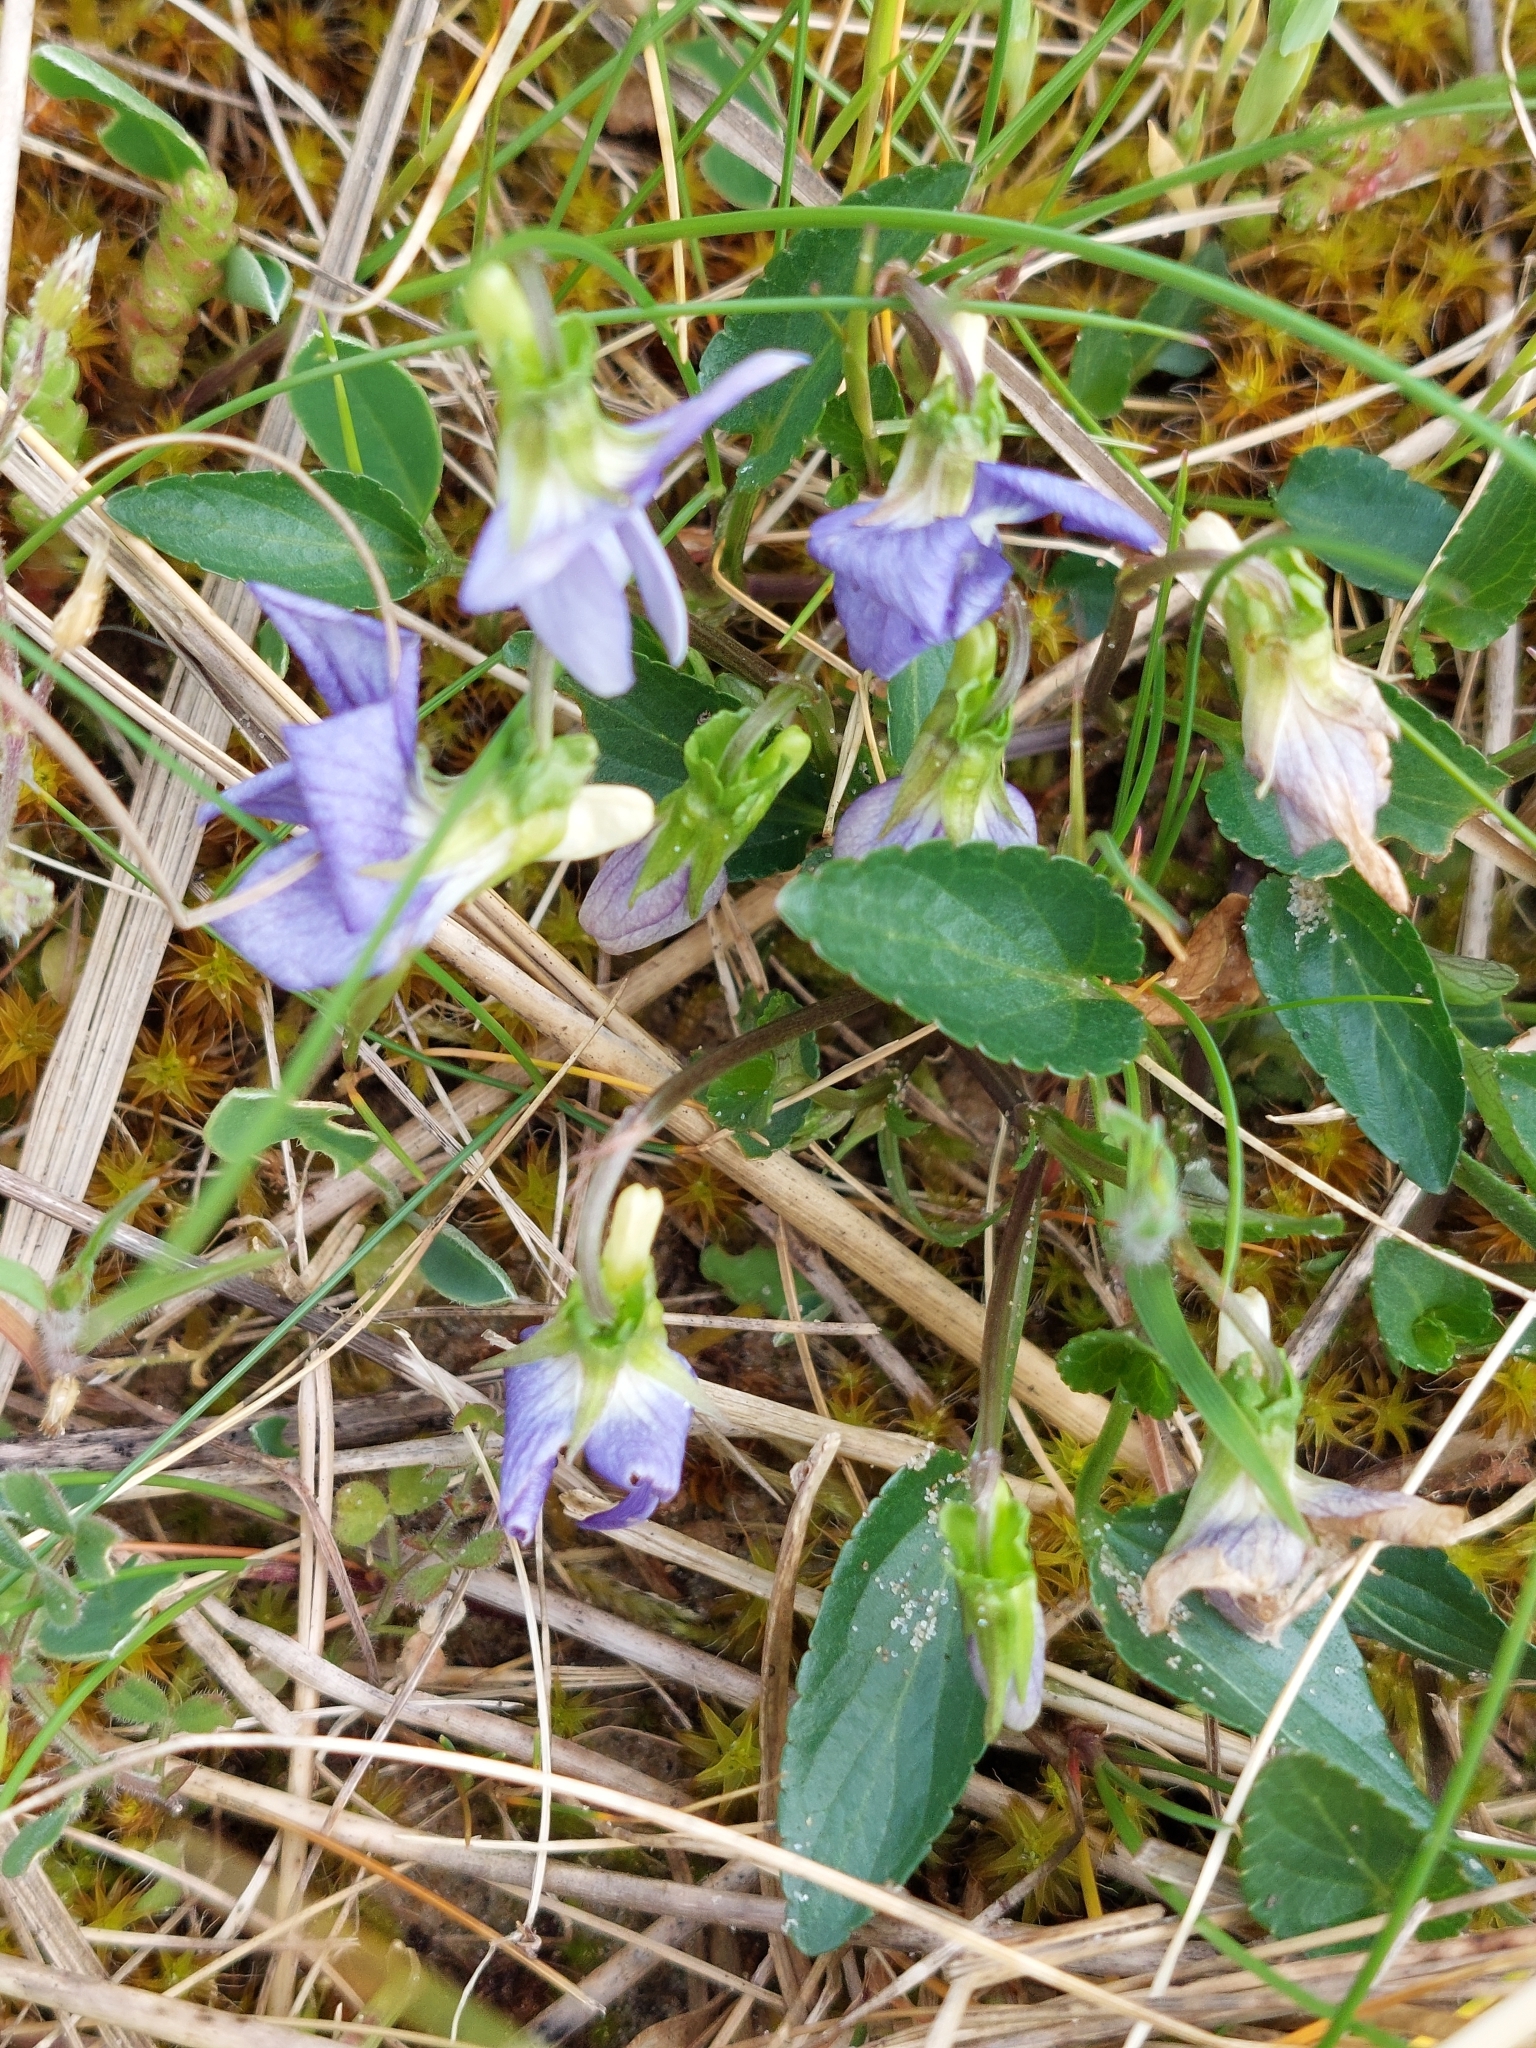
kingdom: Plantae
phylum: Tracheophyta
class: Magnoliopsida
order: Malpighiales
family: Violaceae
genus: Viola
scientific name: Viola canina
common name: Heath dog-violet
